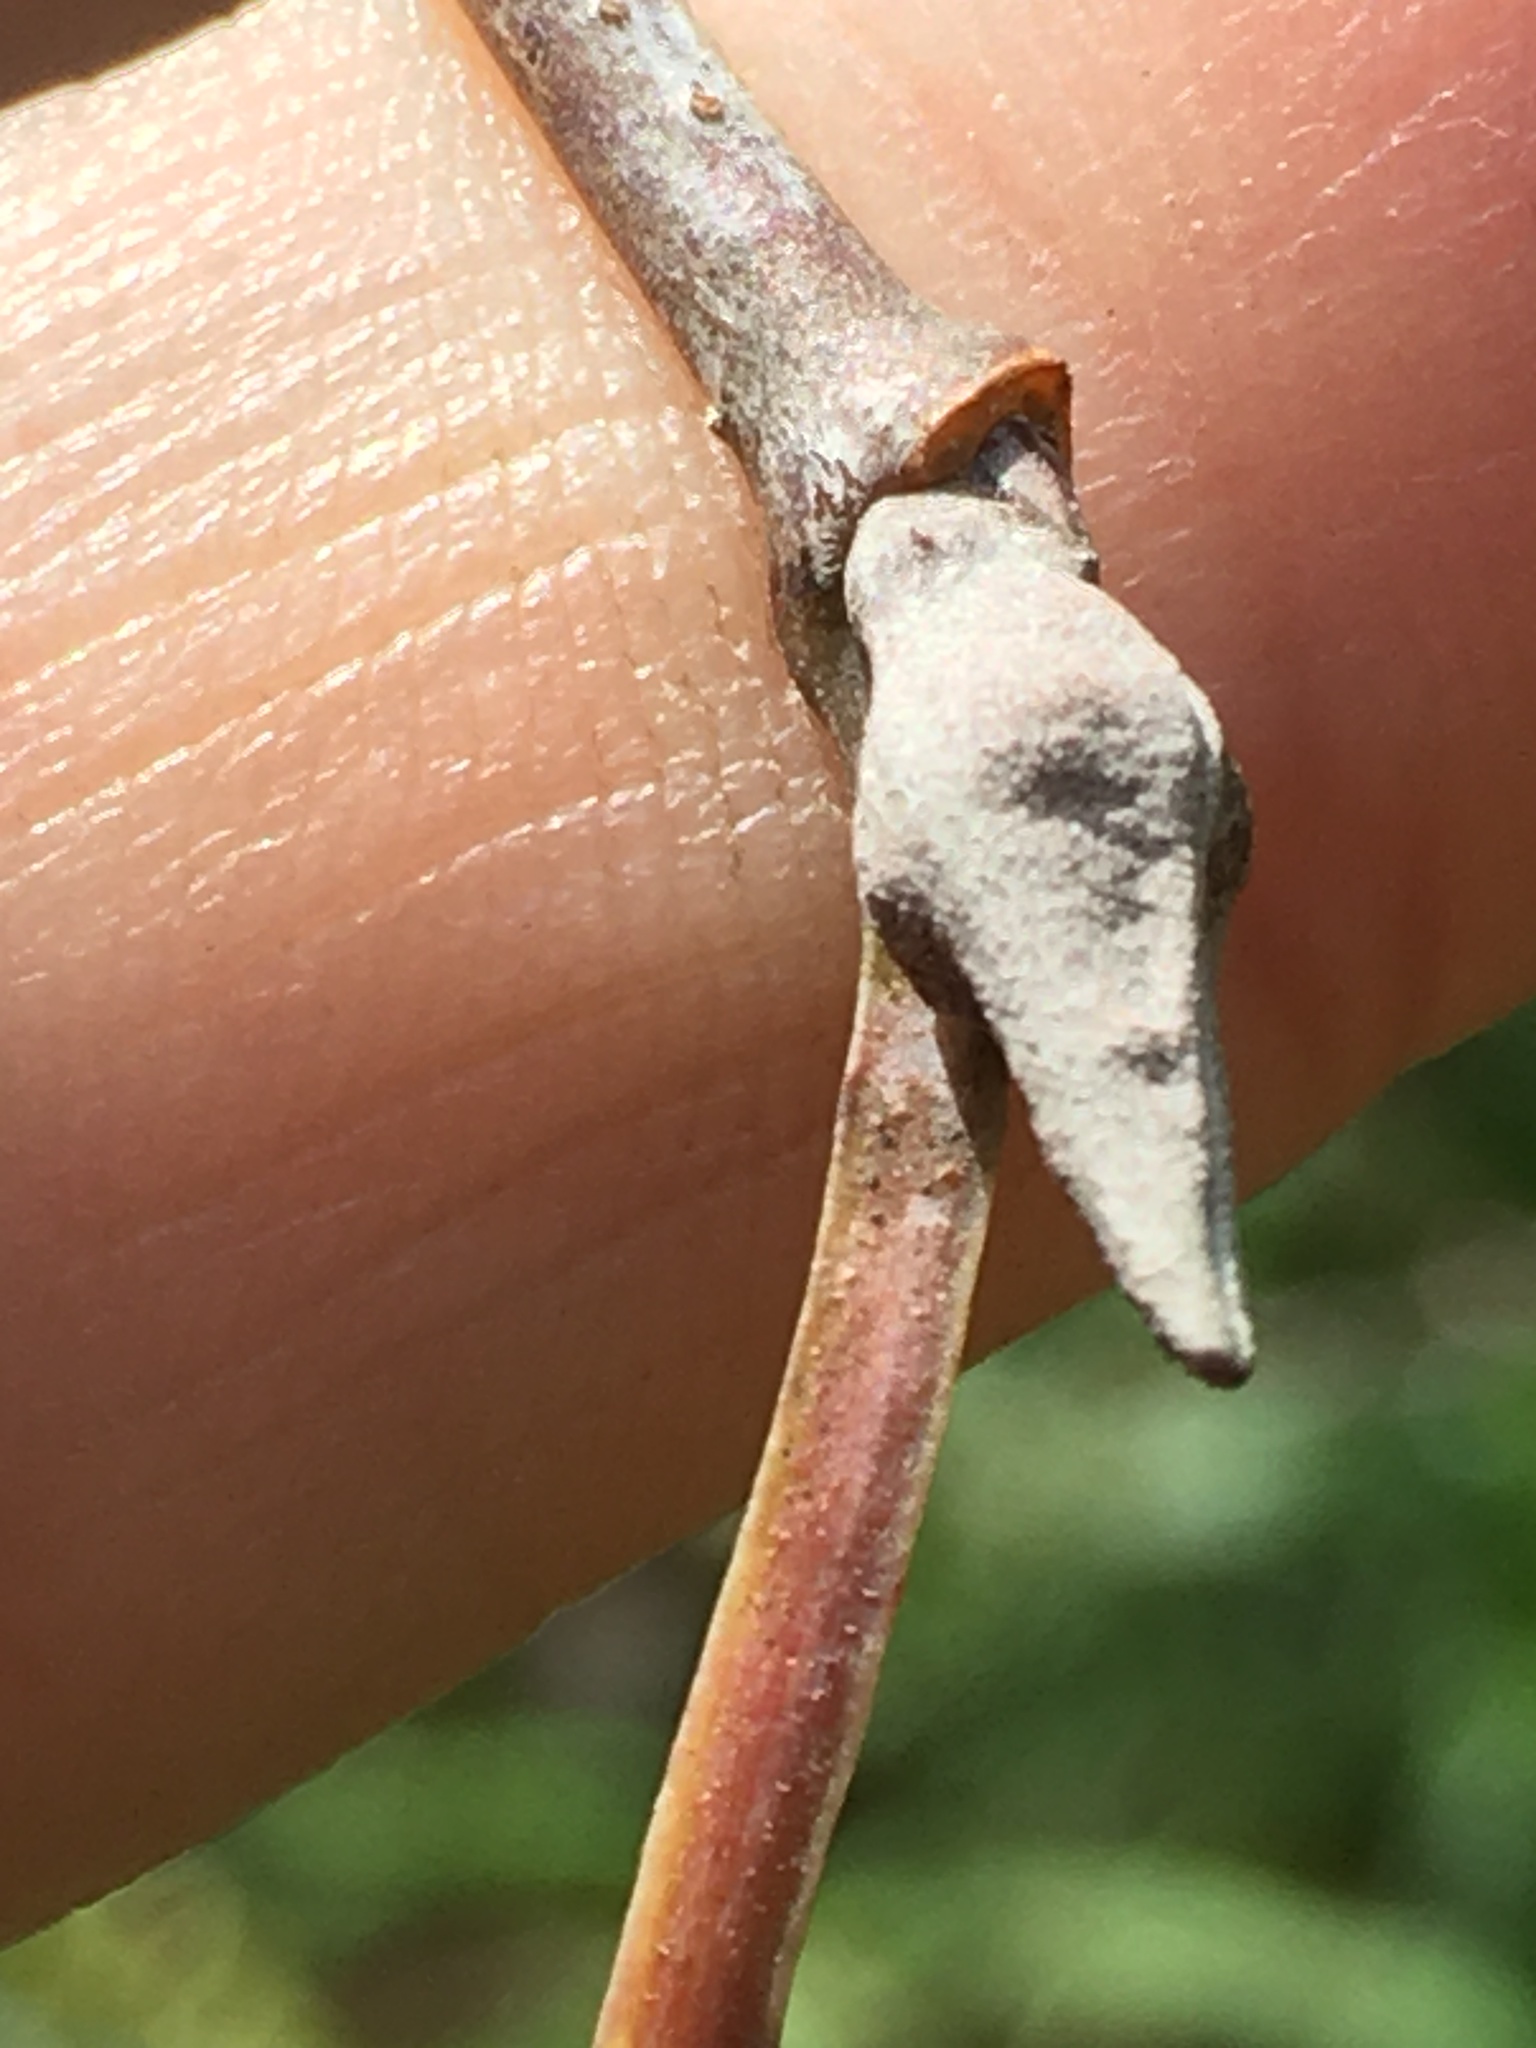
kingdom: Plantae
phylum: Tracheophyta
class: Magnoliopsida
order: Dipsacales
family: Viburnaceae
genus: Viburnum
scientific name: Viburnum prunifolium
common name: Black haw
